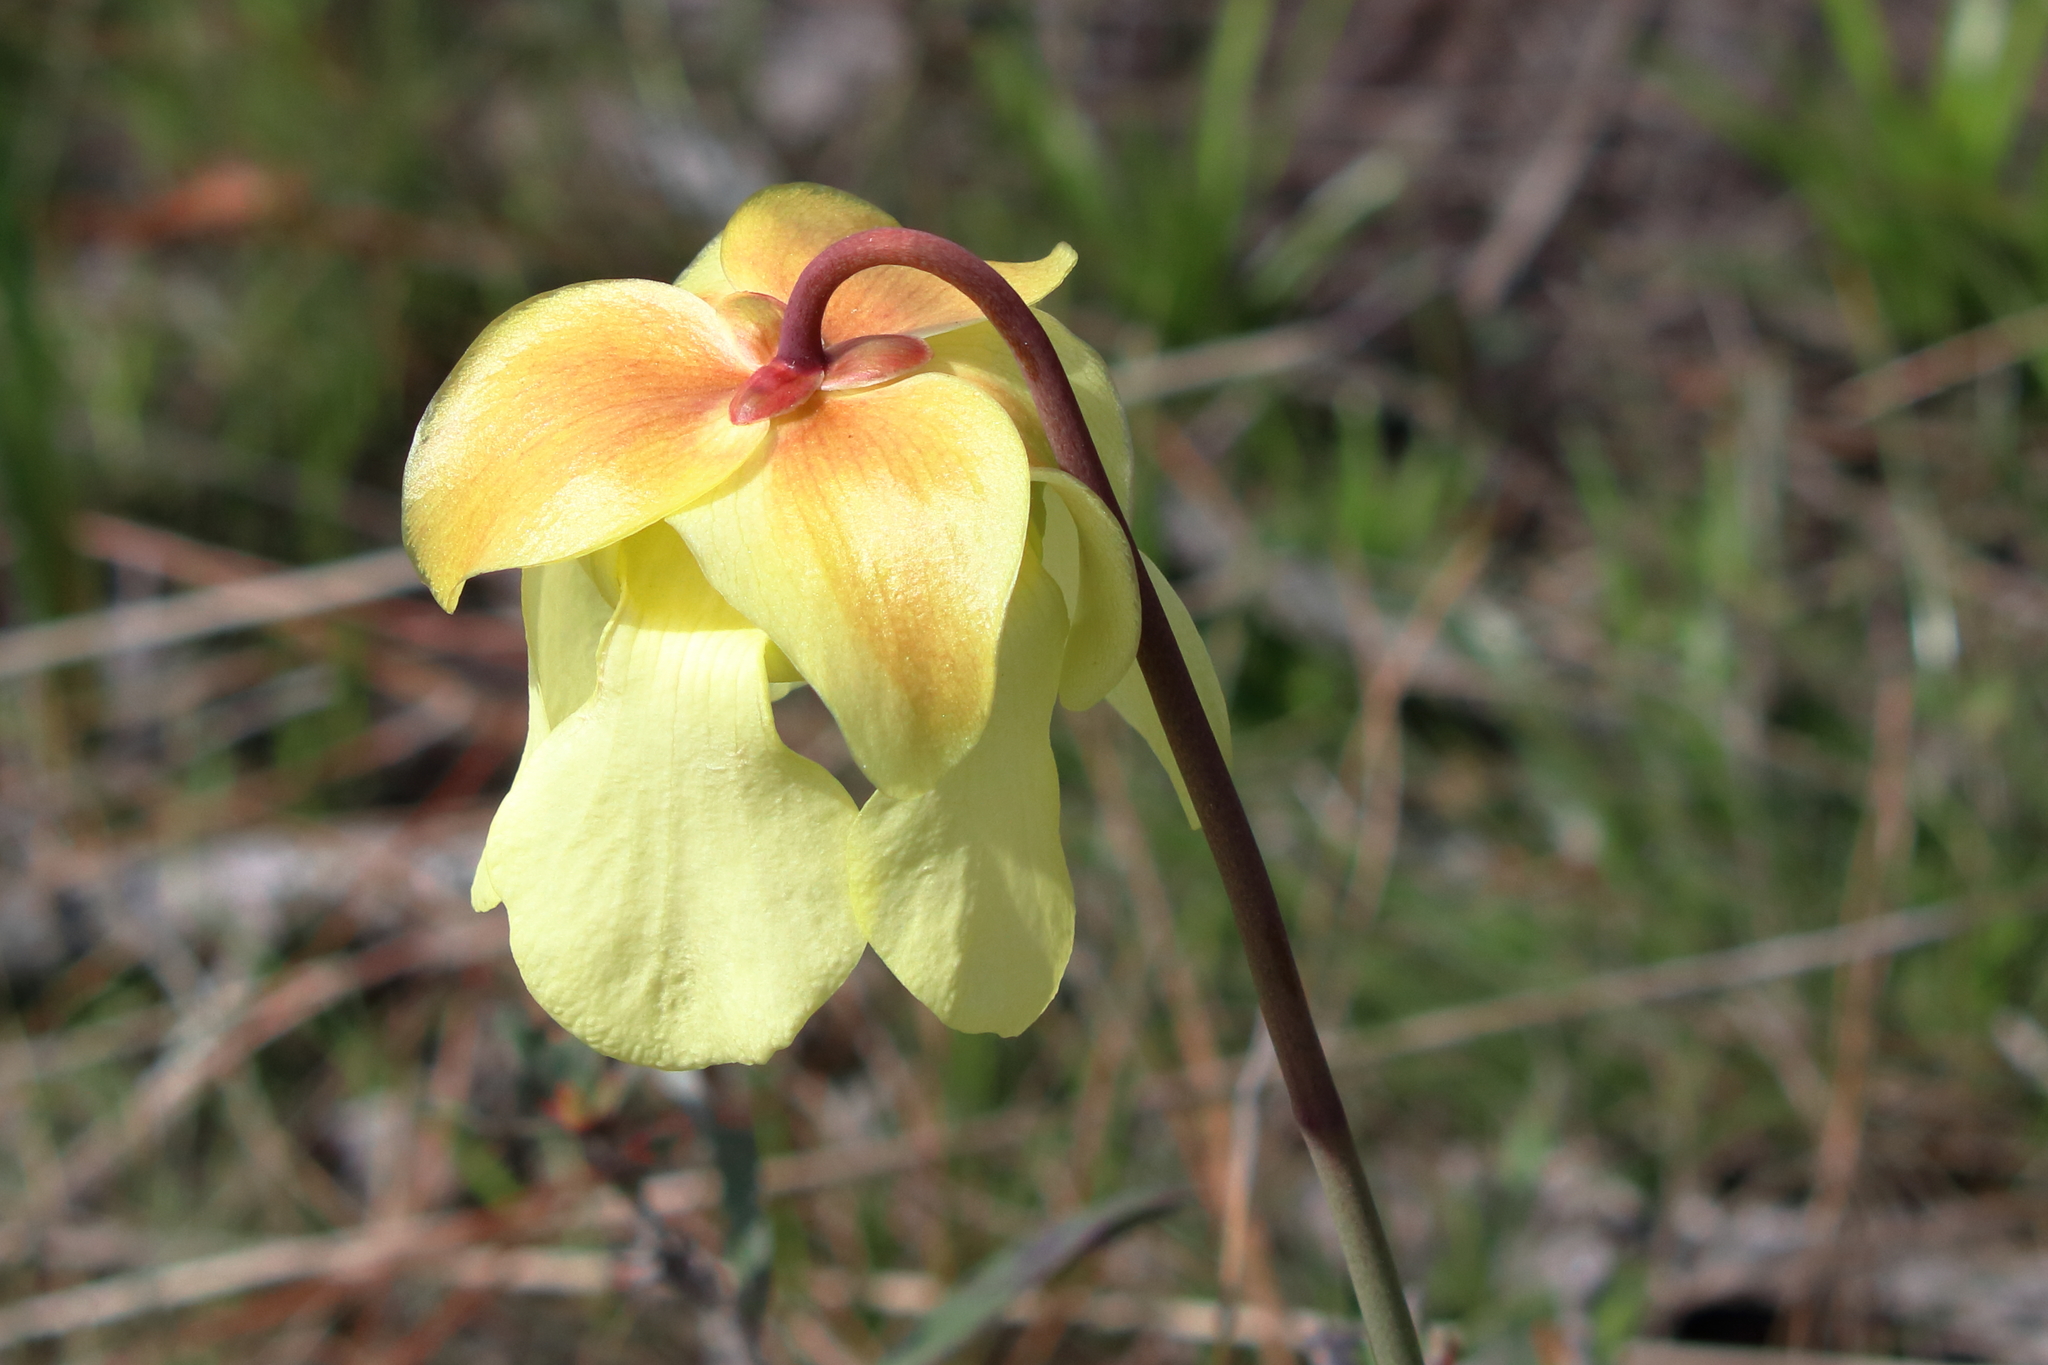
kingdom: Plantae
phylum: Tracheophyta
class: Magnoliopsida
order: Ericales
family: Sarraceniaceae
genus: Sarracenia
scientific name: Sarracenia alata
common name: Yellow trumpets
